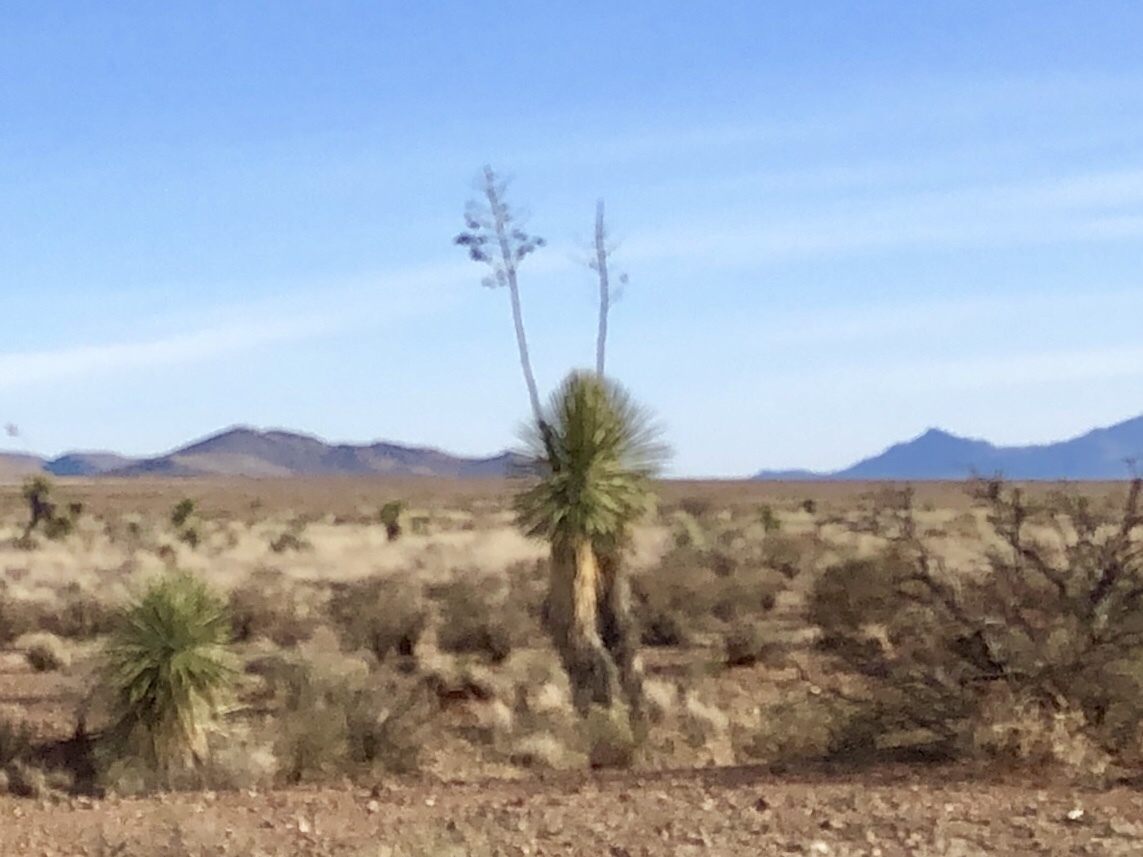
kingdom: Plantae
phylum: Tracheophyta
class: Liliopsida
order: Asparagales
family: Asparagaceae
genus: Yucca
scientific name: Yucca elata
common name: Palmella
